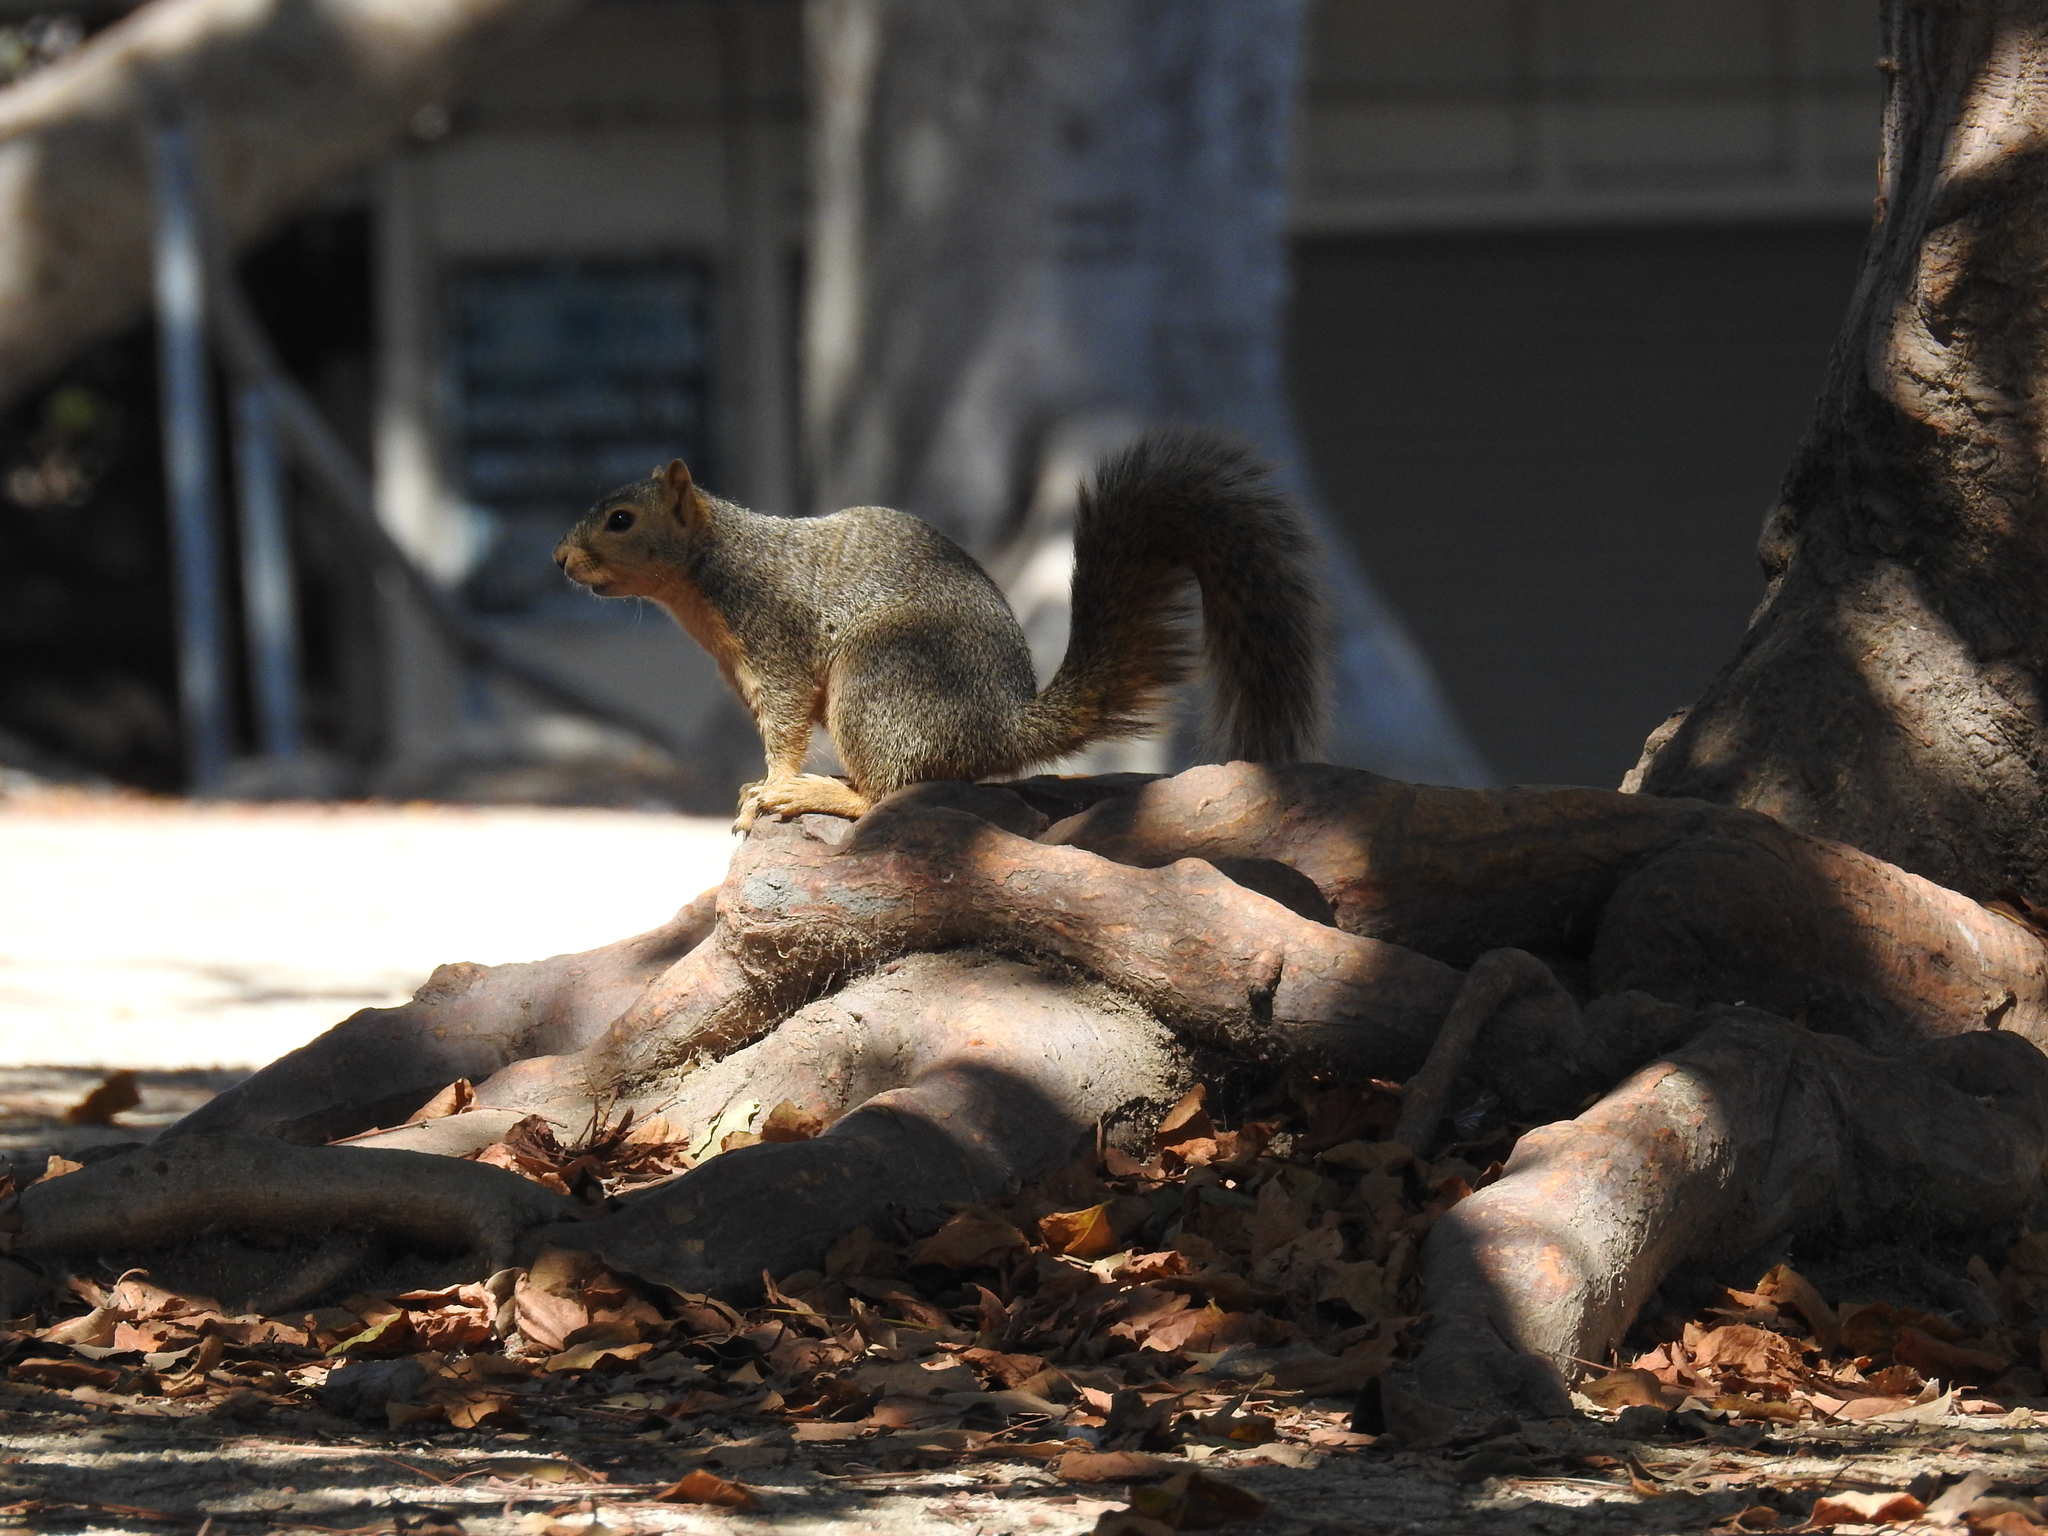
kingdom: Animalia
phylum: Chordata
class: Mammalia
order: Rodentia
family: Sciuridae
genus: Sciurus
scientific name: Sciurus niger
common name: Fox squirrel
